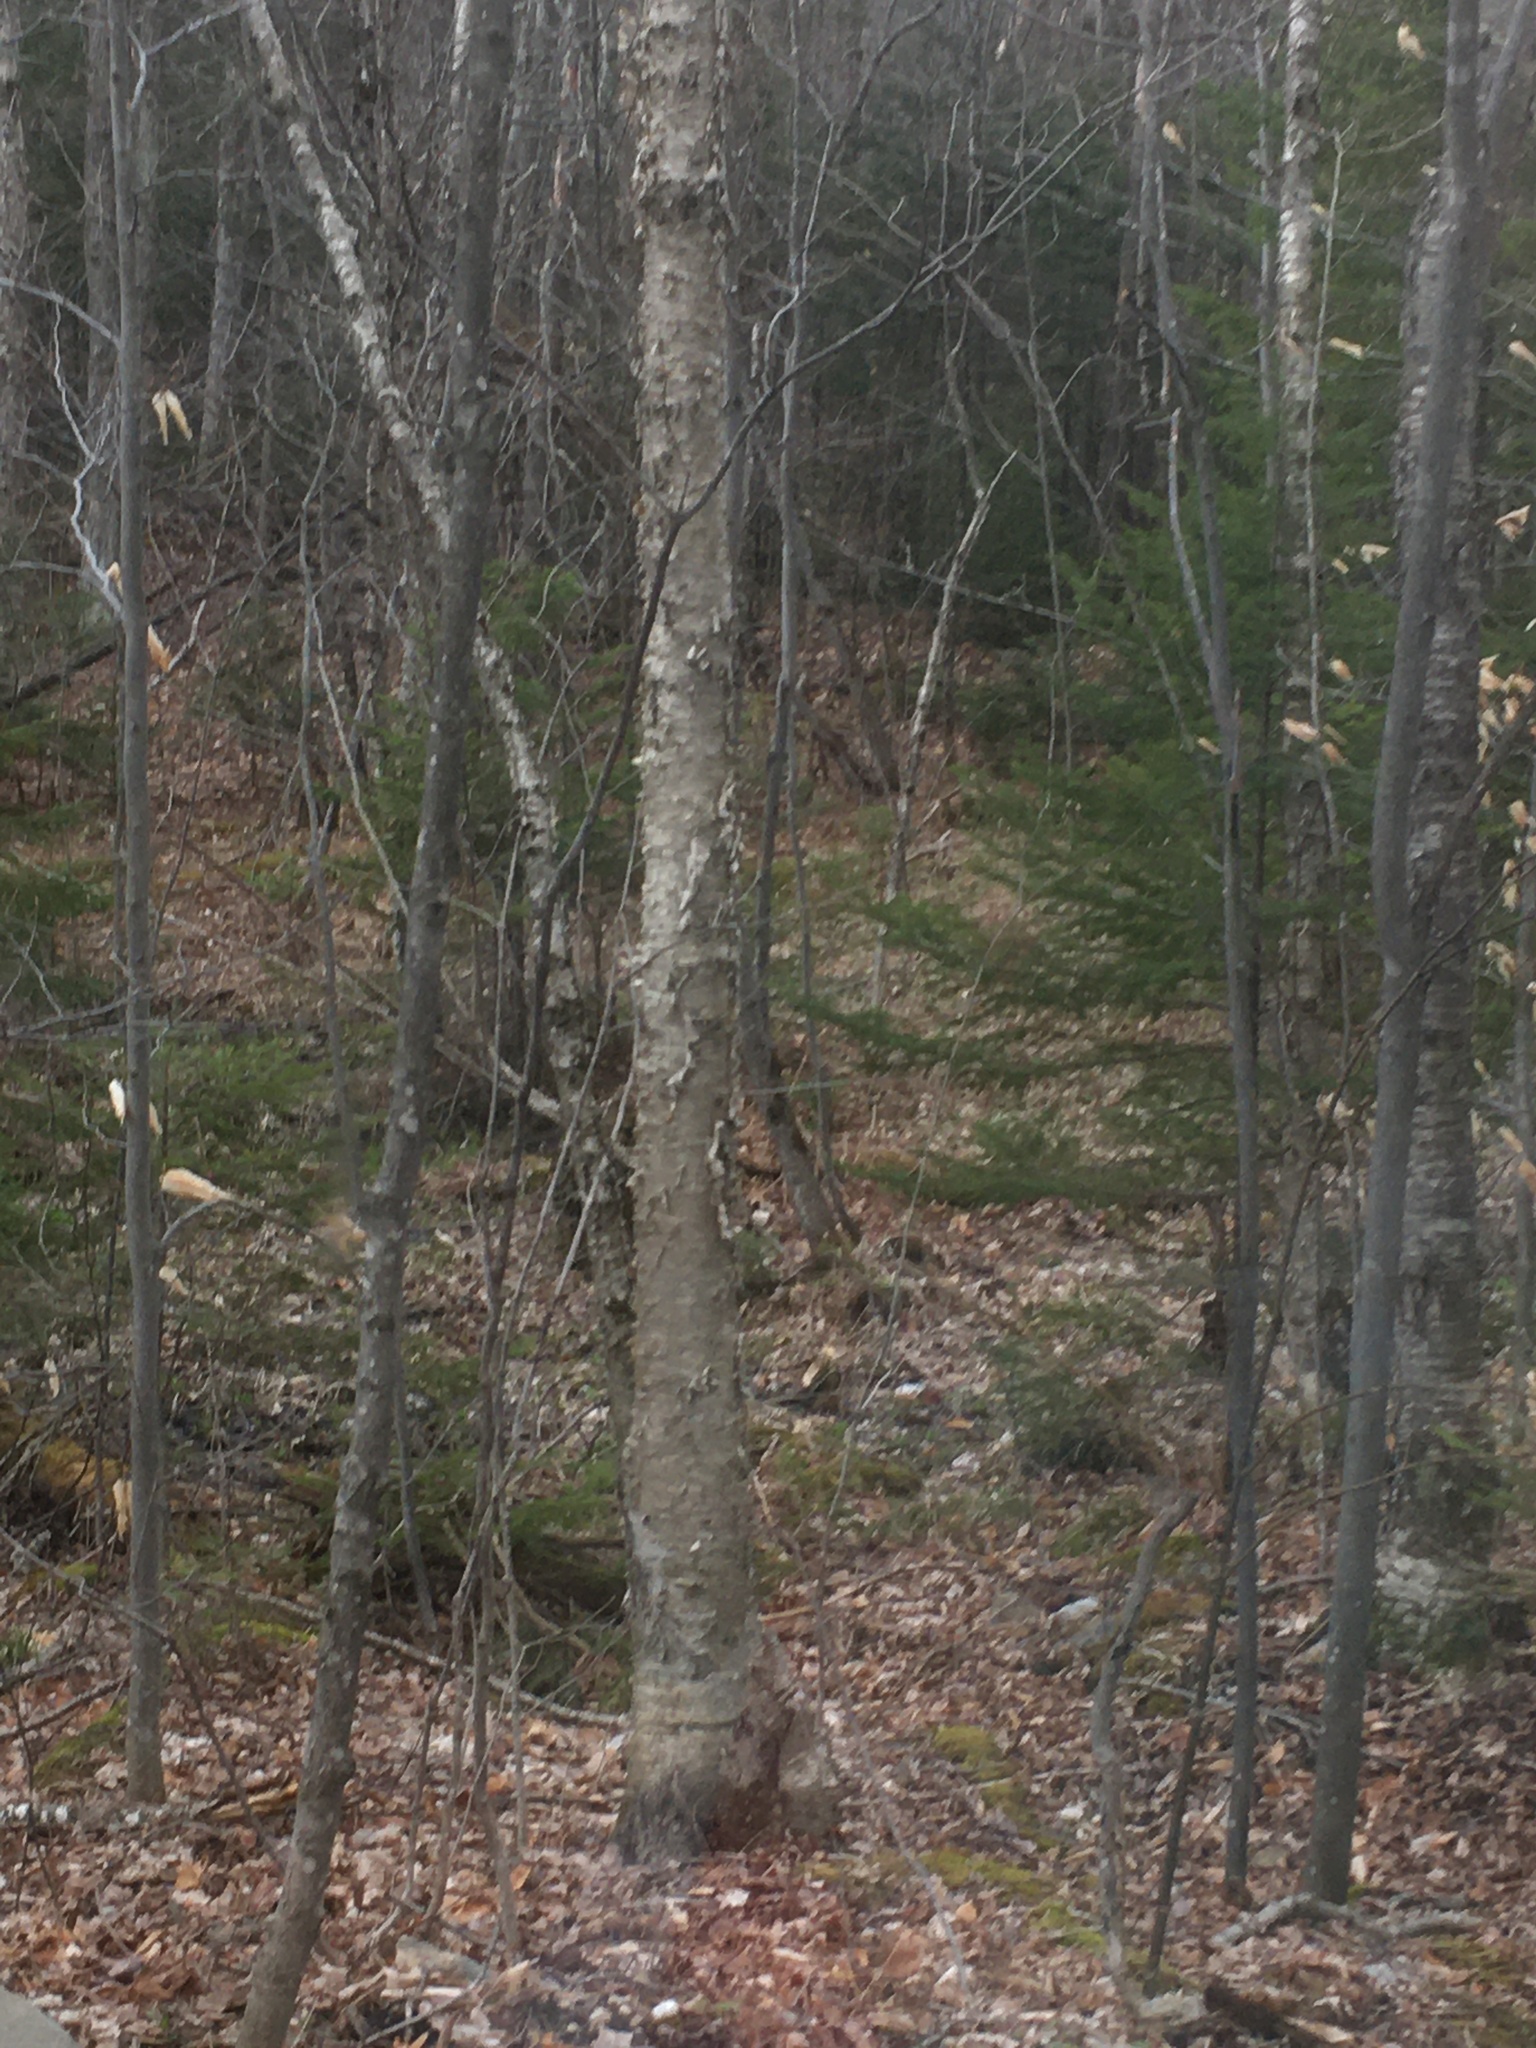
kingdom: Plantae
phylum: Tracheophyta
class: Magnoliopsida
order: Fagales
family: Betulaceae
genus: Betula
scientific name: Betula alleghaniensis
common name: Yellow birch
